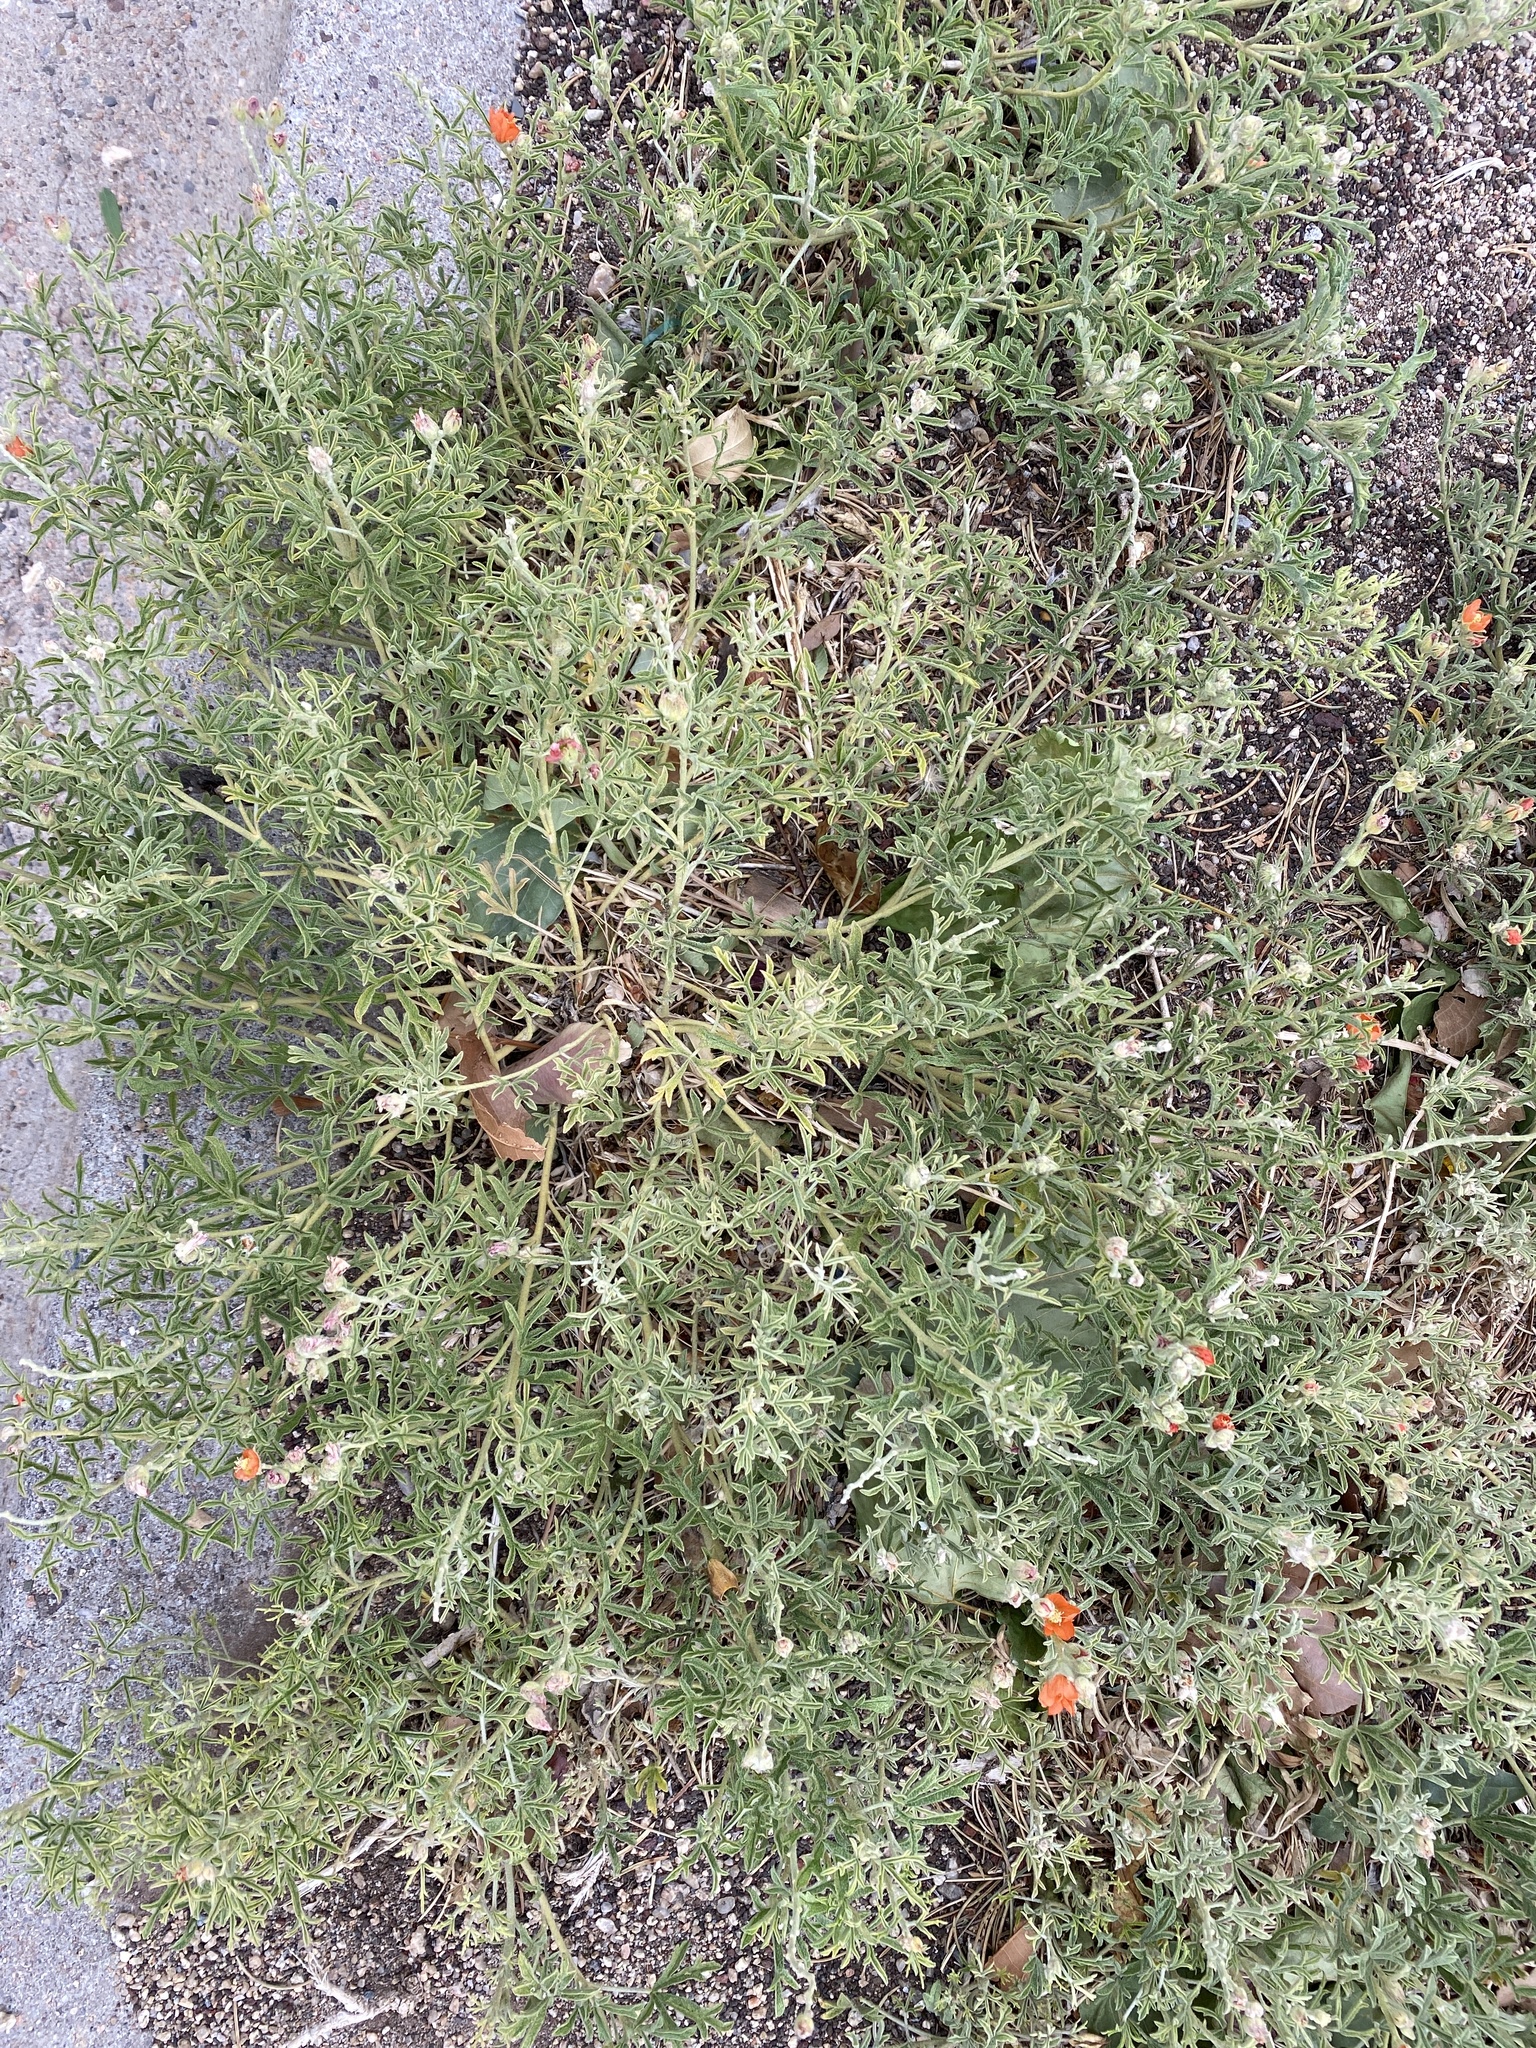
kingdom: Plantae
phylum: Tracheophyta
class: Magnoliopsida
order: Malvales
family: Malvaceae
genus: Sphaeralcea
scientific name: Sphaeralcea coccinea
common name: Moss-rose
